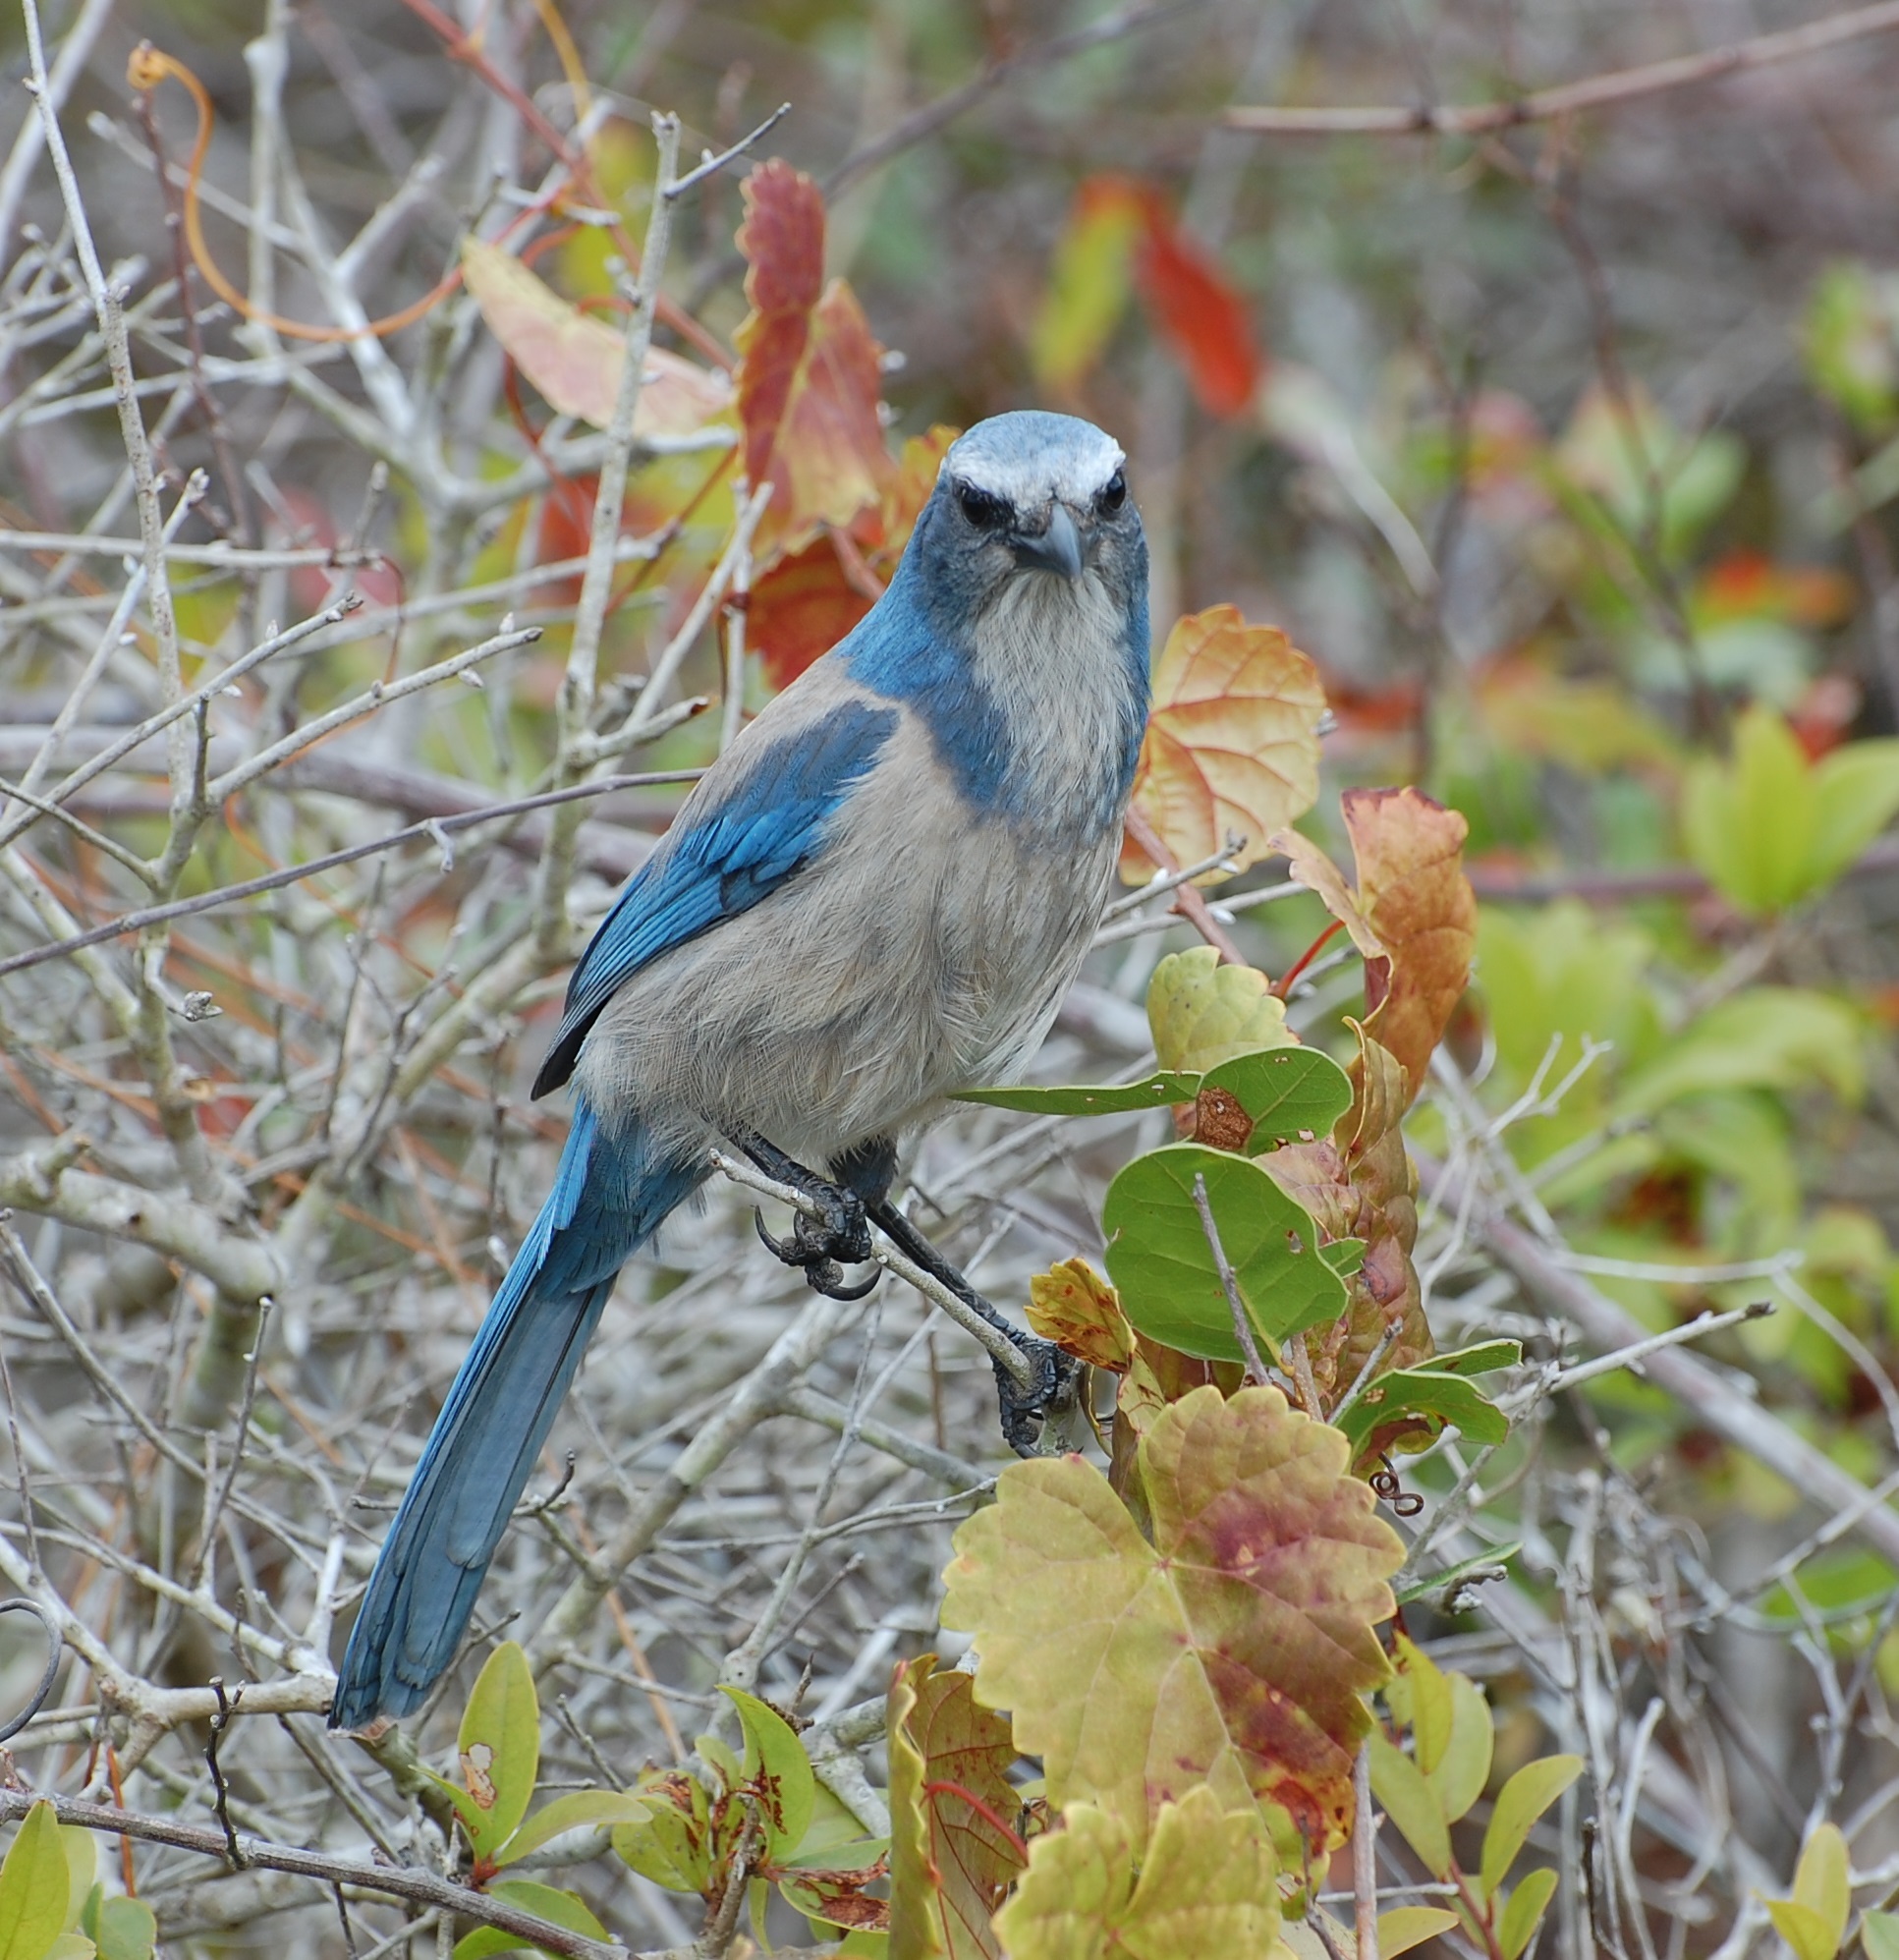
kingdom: Animalia
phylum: Chordata
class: Aves
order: Passeriformes
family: Corvidae
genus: Aphelocoma
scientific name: Aphelocoma coerulescens
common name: Florida scrub jay
